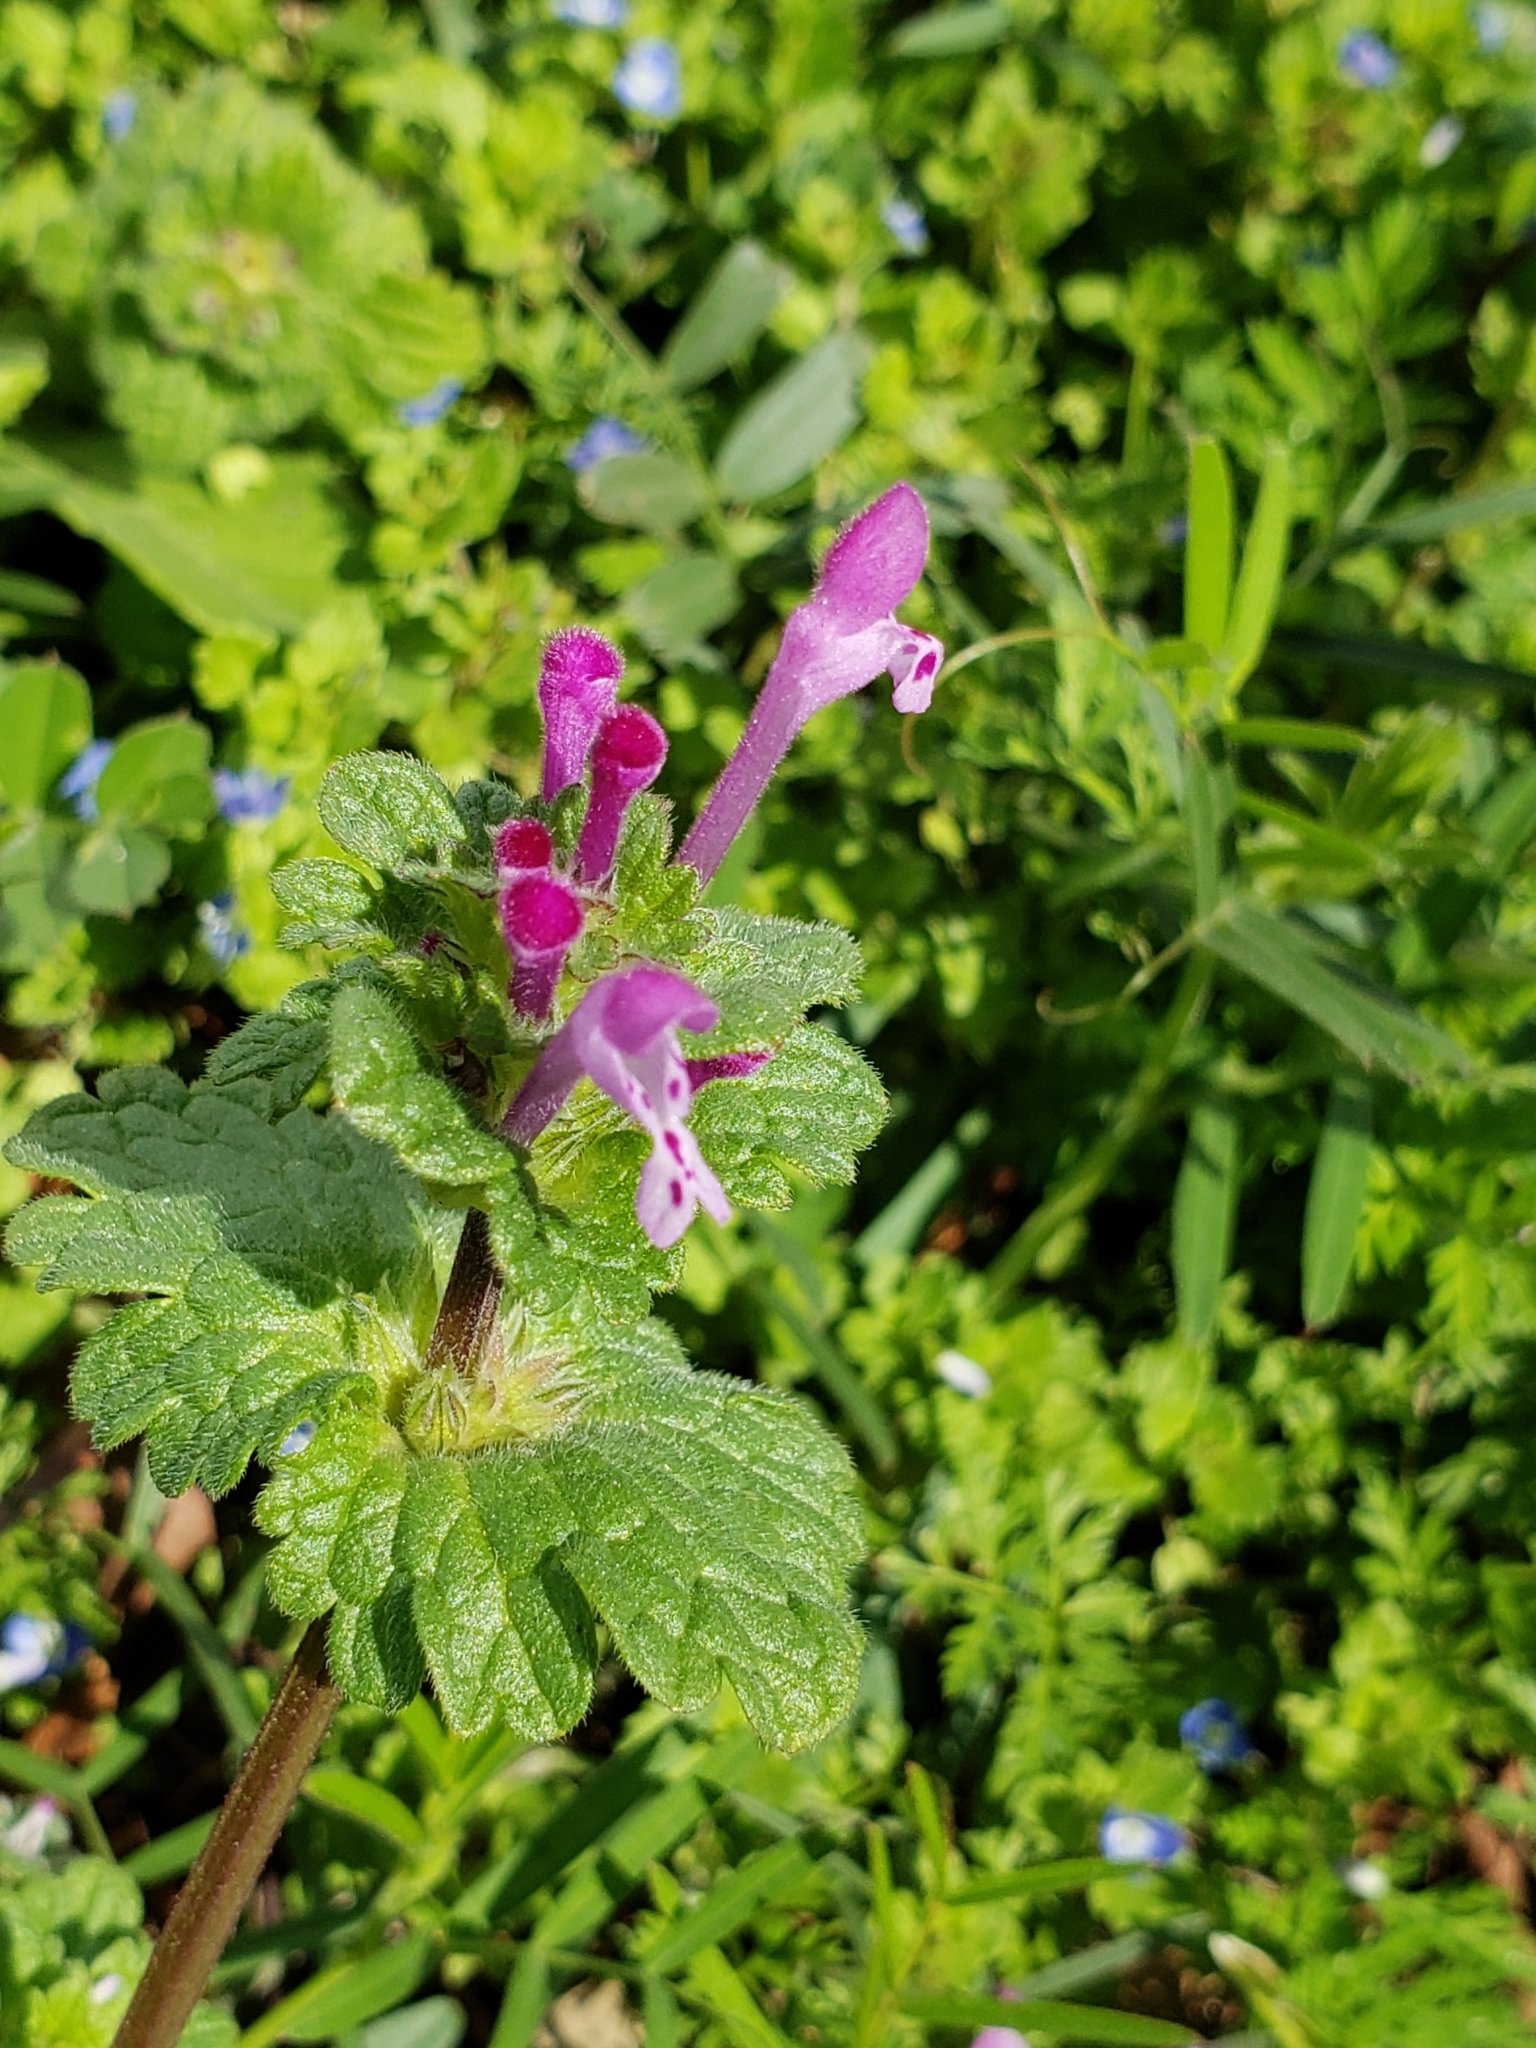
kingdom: Plantae
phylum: Tracheophyta
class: Magnoliopsida
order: Lamiales
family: Lamiaceae
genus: Lamium
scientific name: Lamium amplexicaule
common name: Henbit dead-nettle
